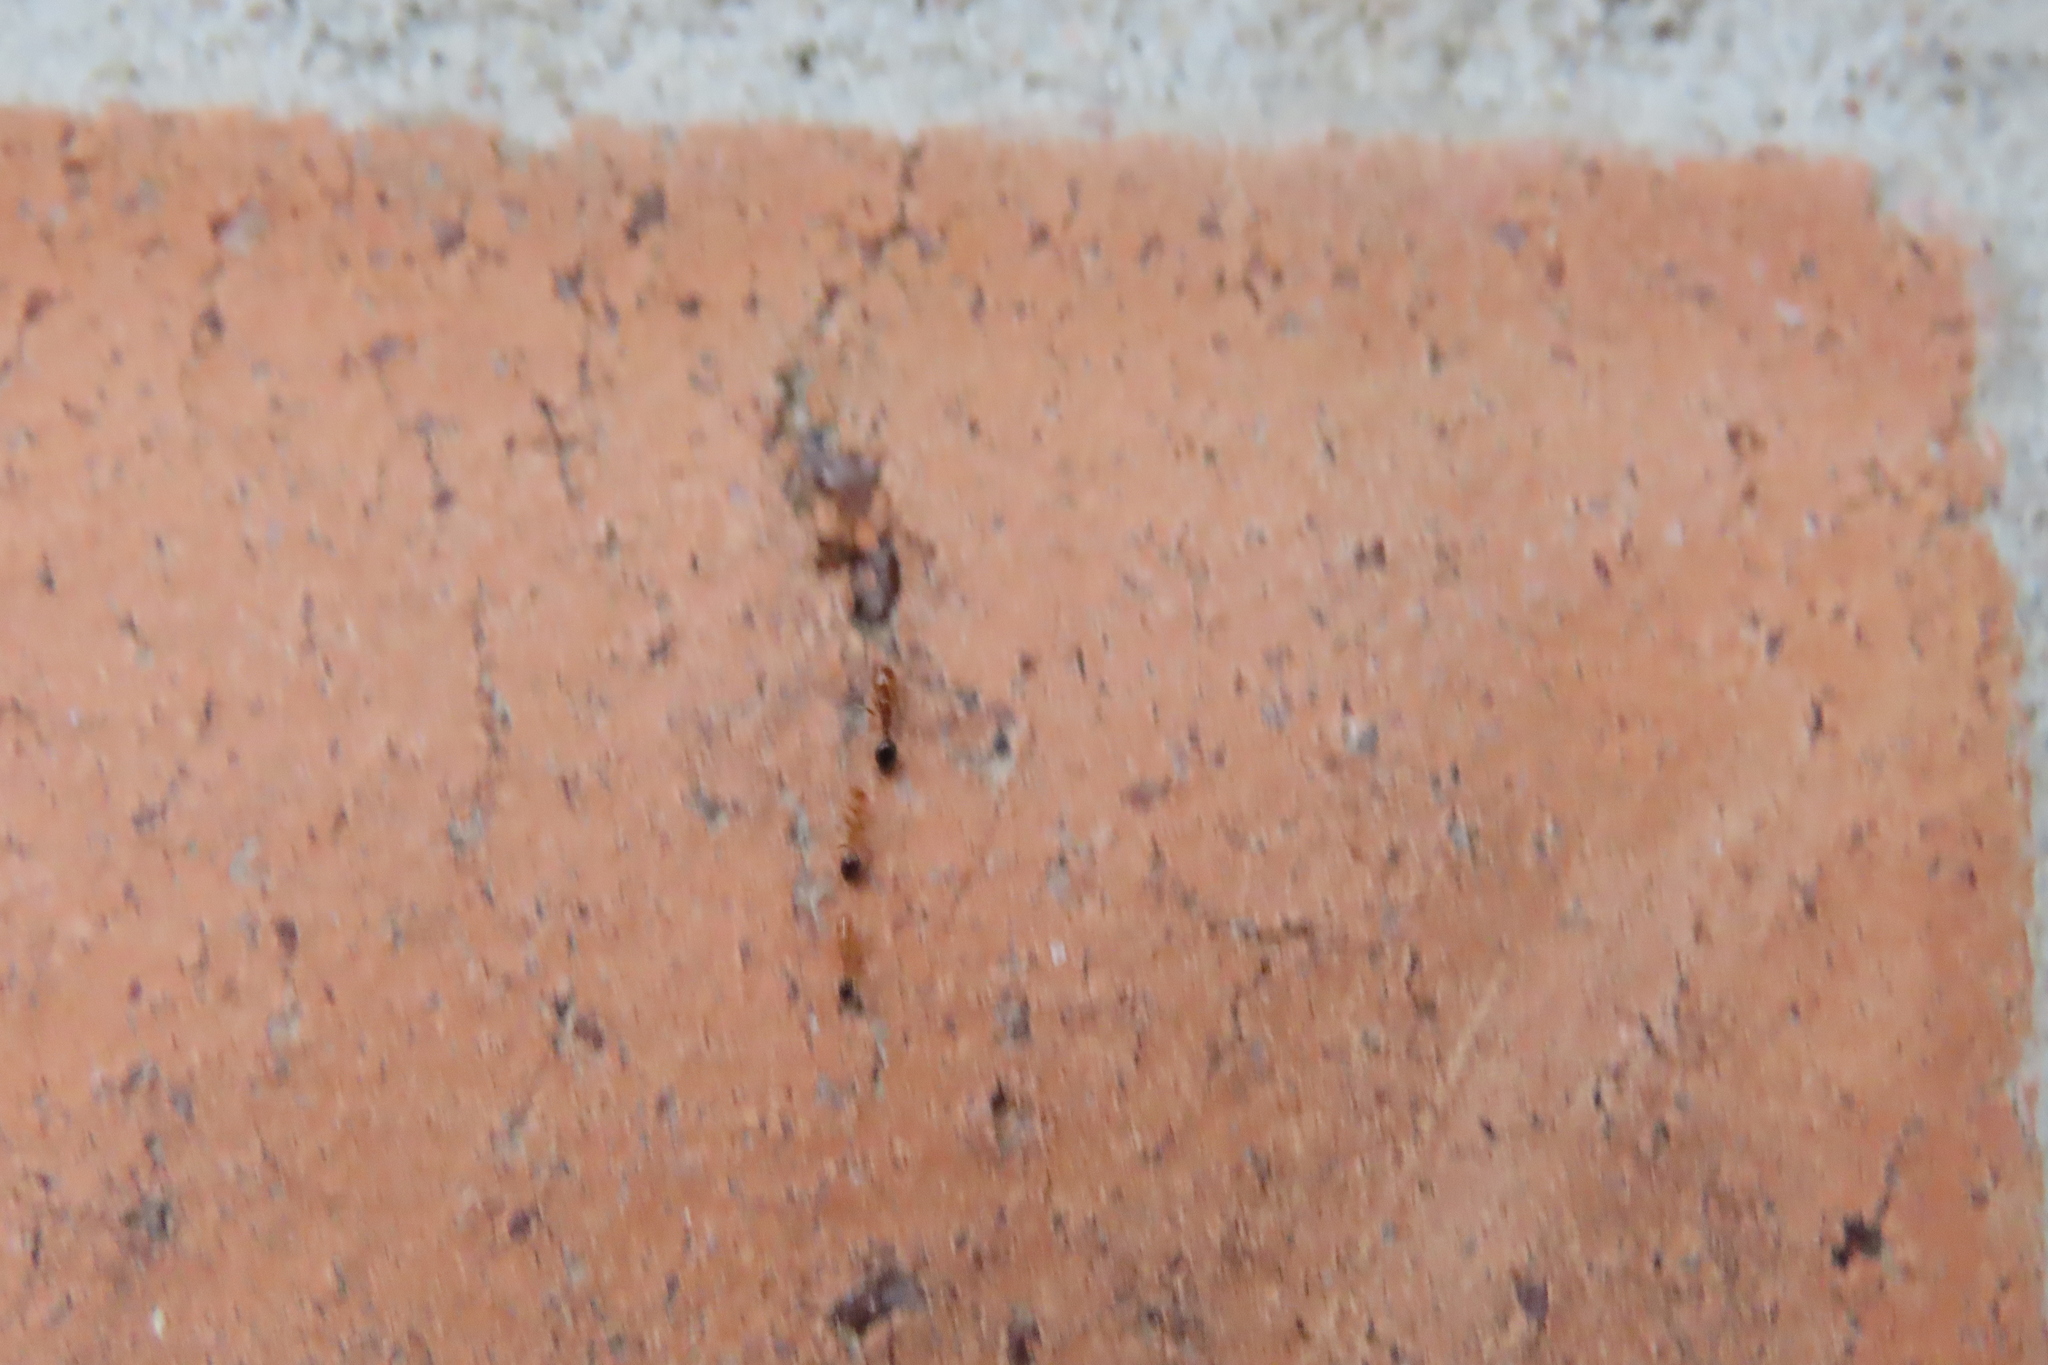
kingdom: Animalia
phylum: Arthropoda
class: Insecta
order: Hymenoptera
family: Formicidae
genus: Monomorium
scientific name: Monomorium destructor
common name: Destructive trailing ant
